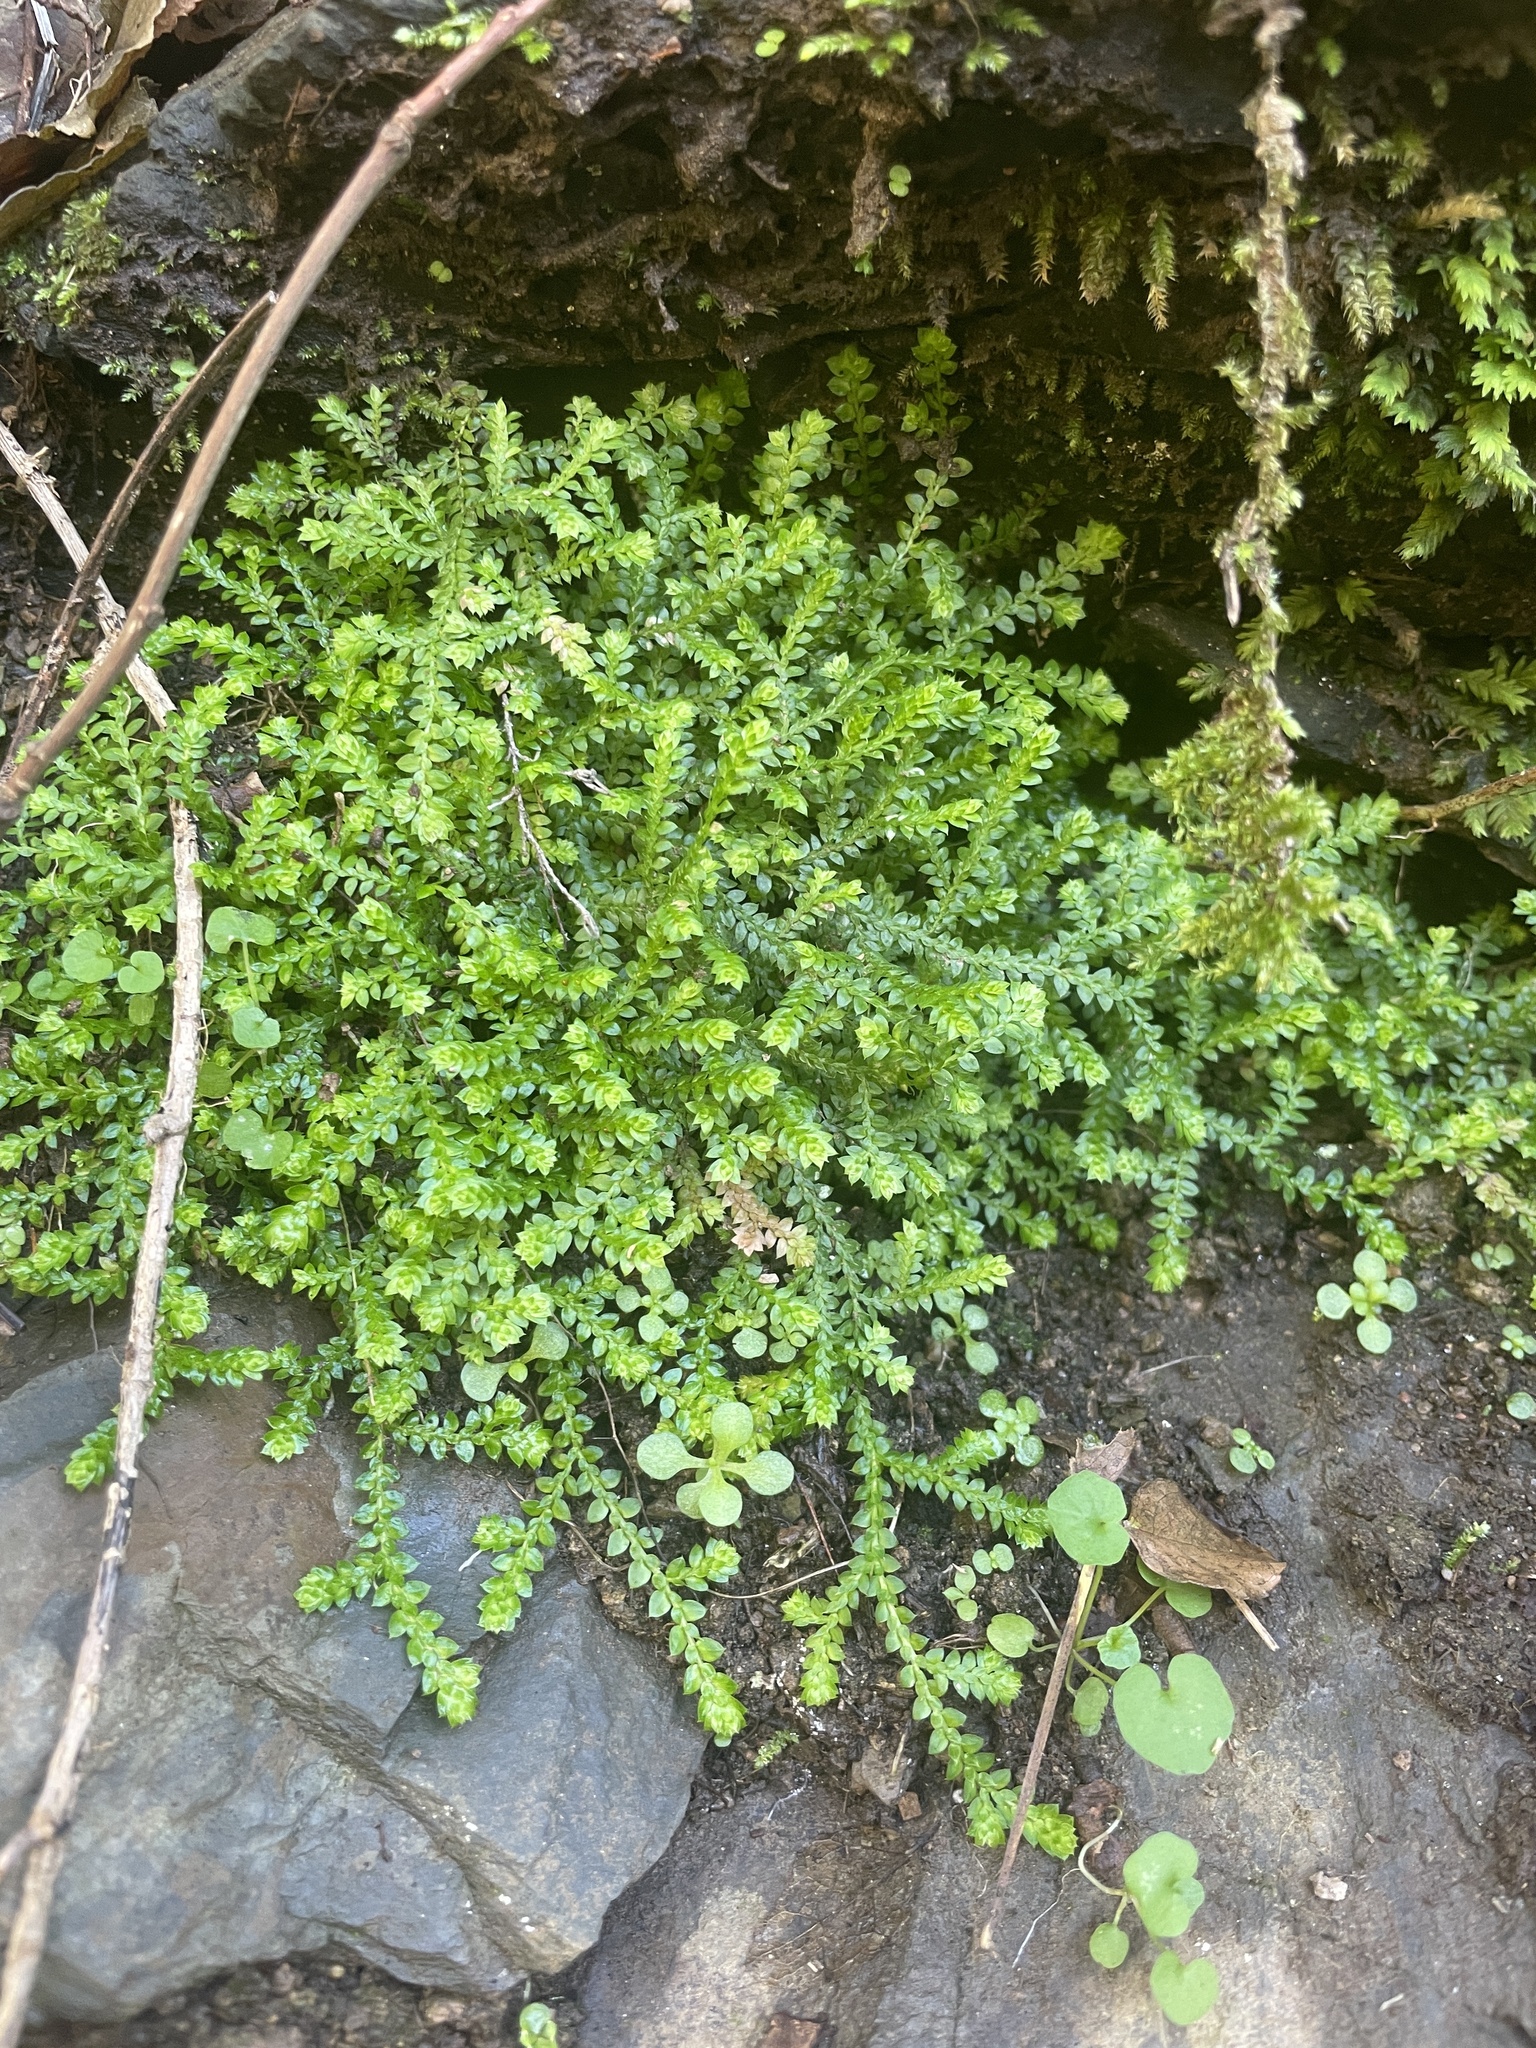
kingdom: Plantae
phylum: Tracheophyta
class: Lycopodiopsida
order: Selaginellales
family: Selaginellaceae
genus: Selaginella
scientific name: Selaginella denticulata
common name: Toothed-leaved clubmoss
